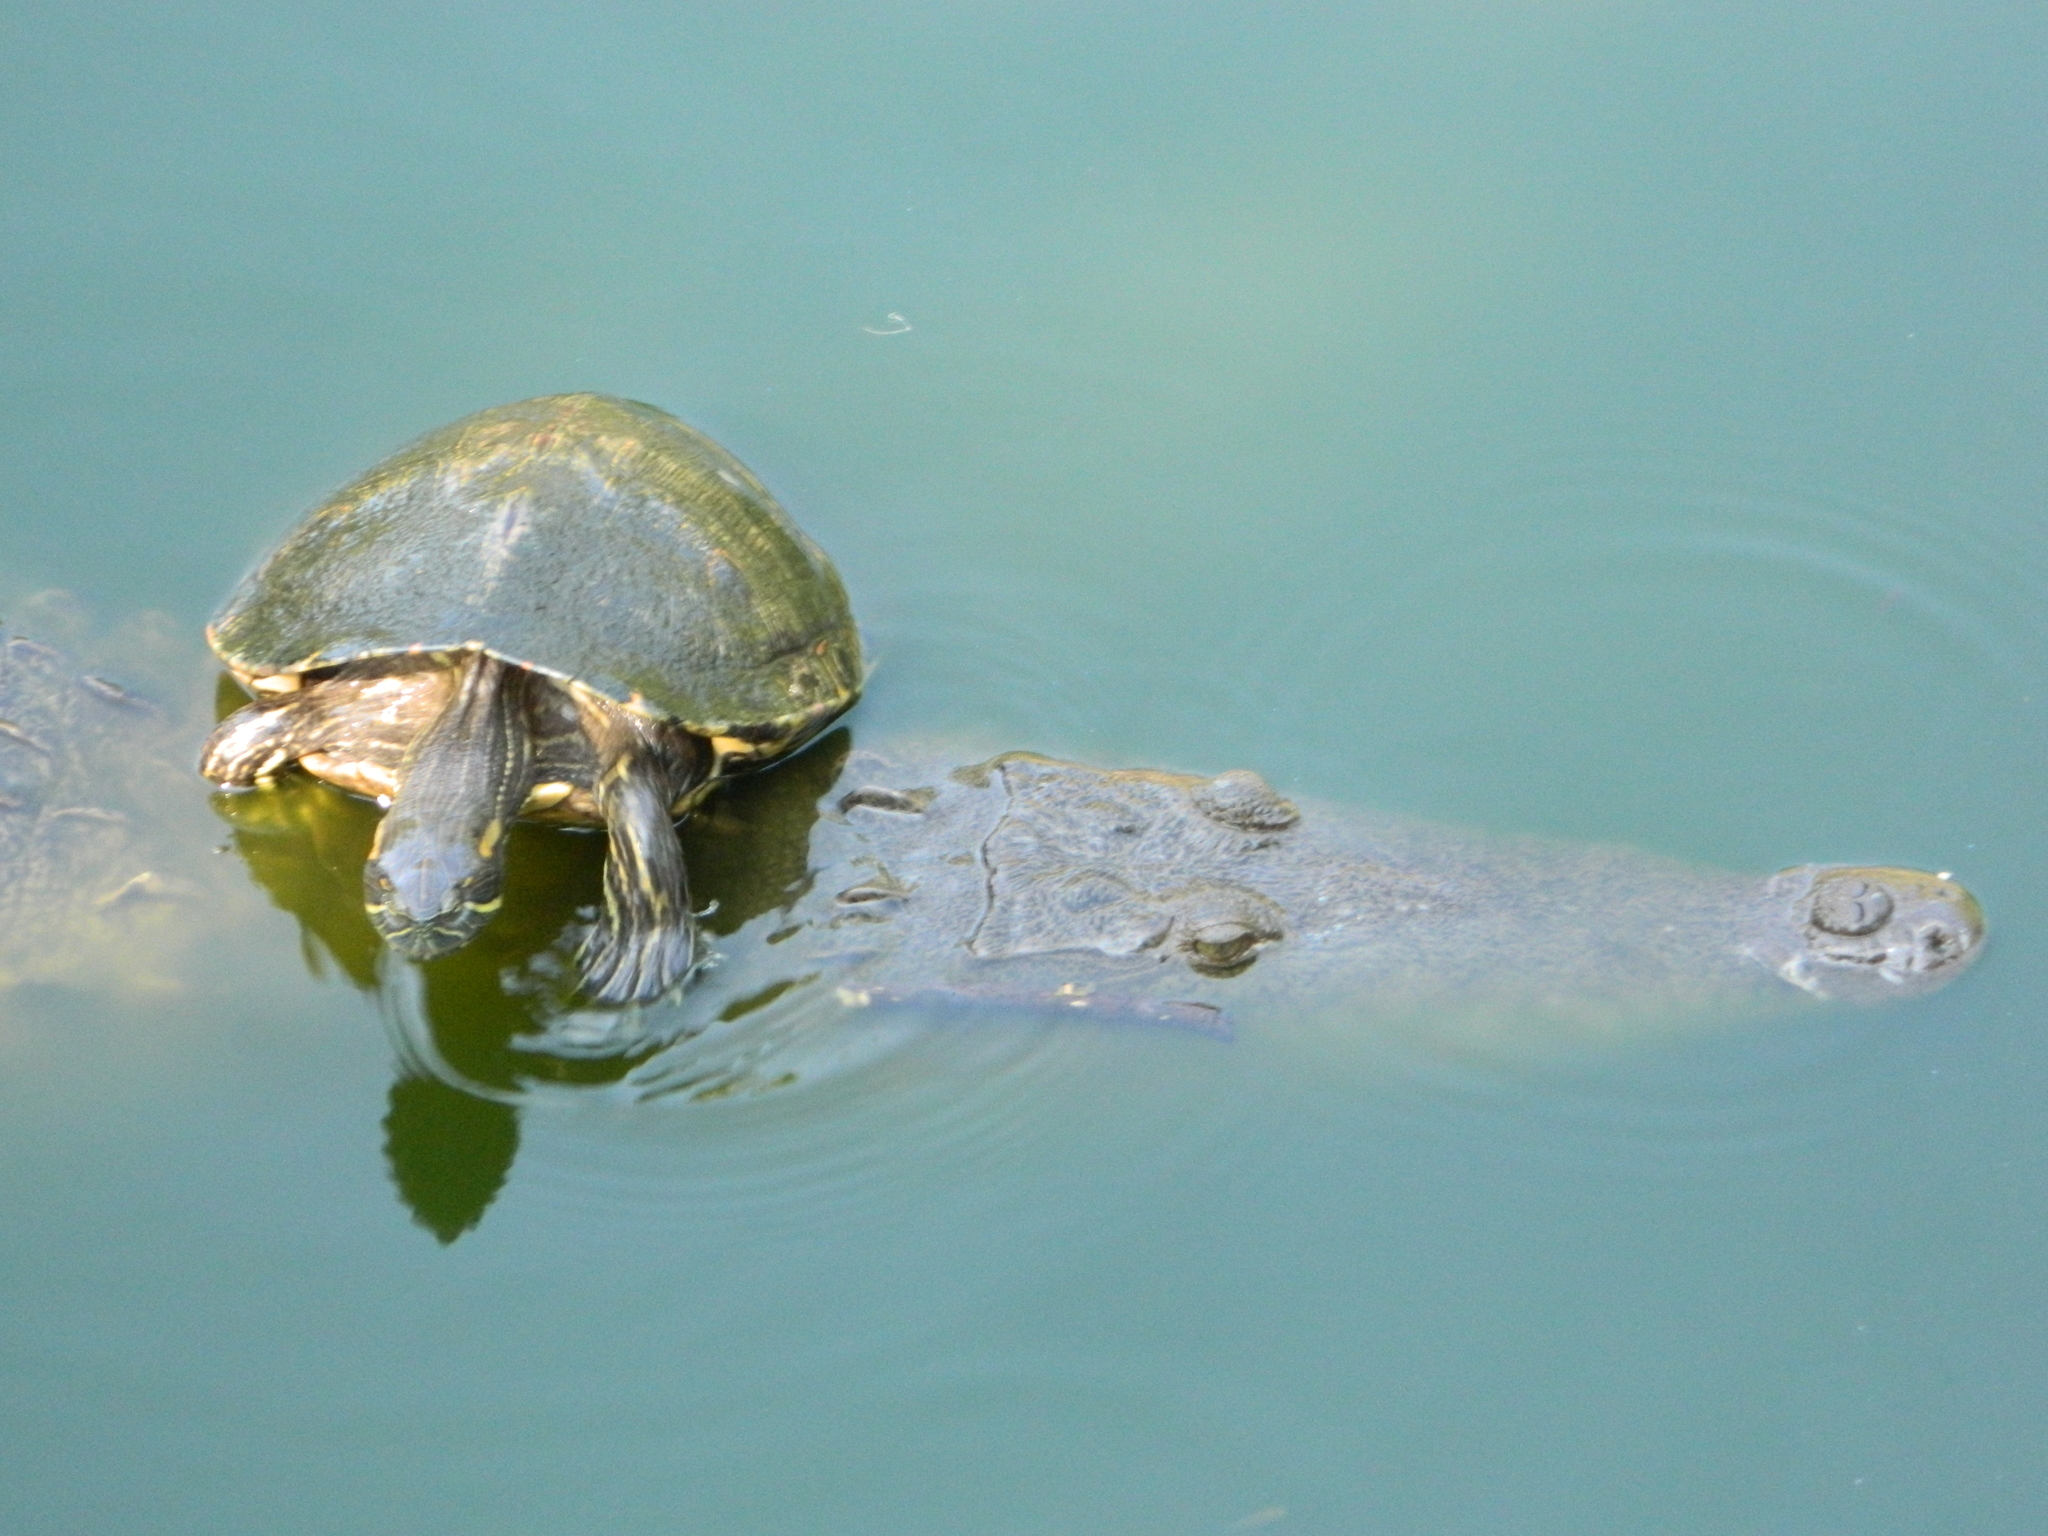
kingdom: Animalia
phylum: Chordata
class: Testudines
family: Emydidae
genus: Trachemys
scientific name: Trachemys venusta
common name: Mesoamerican slider
